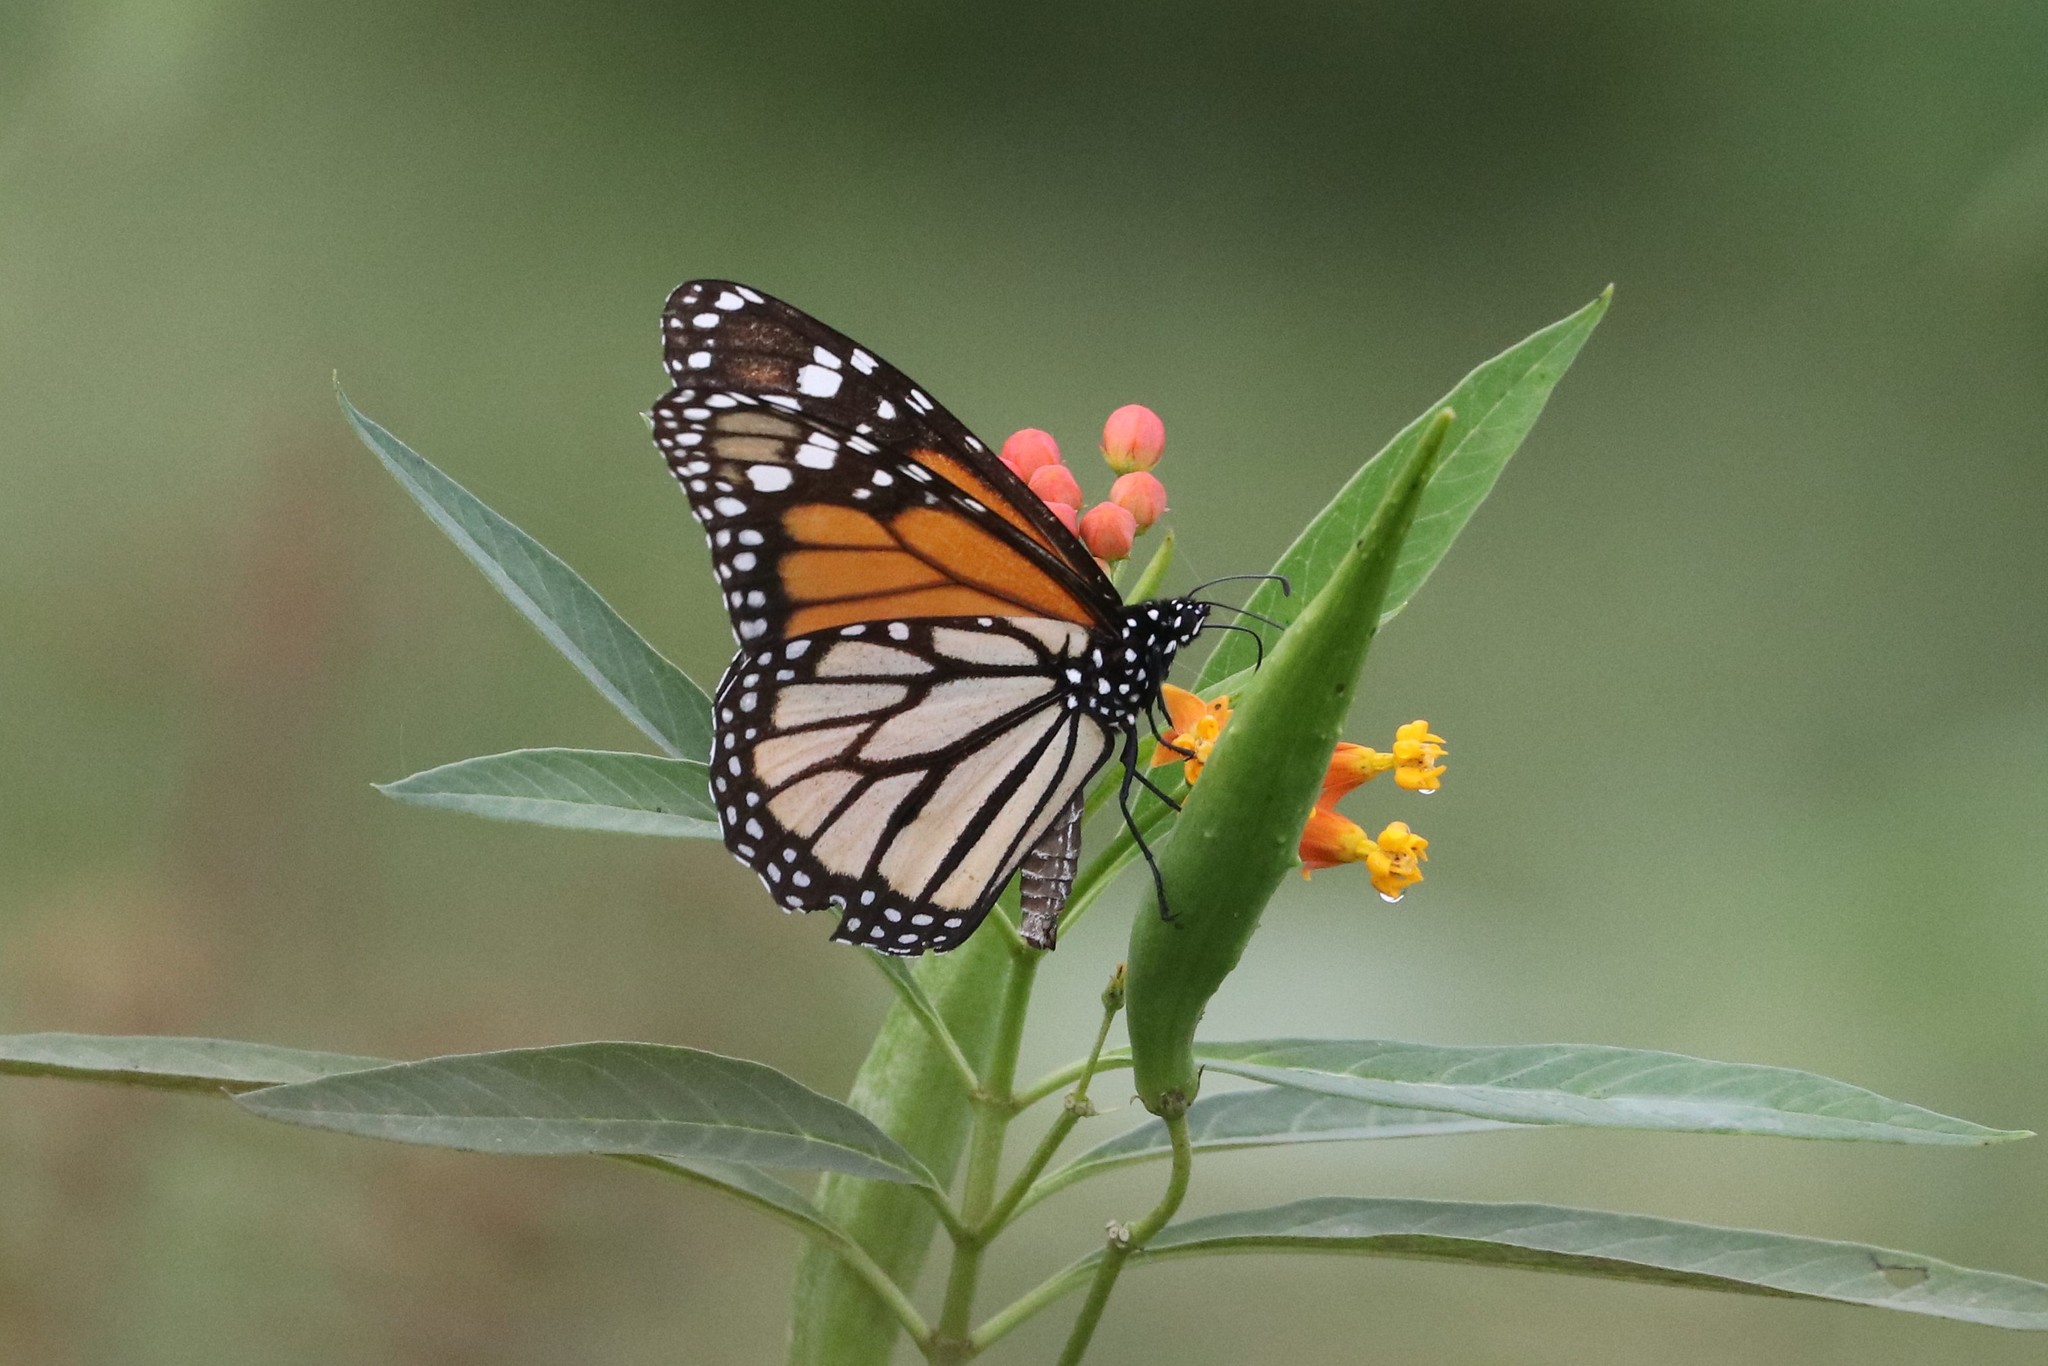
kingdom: Animalia
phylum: Arthropoda
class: Insecta
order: Lepidoptera
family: Nymphalidae
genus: Danaus
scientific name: Danaus plexippus
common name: Monarch
